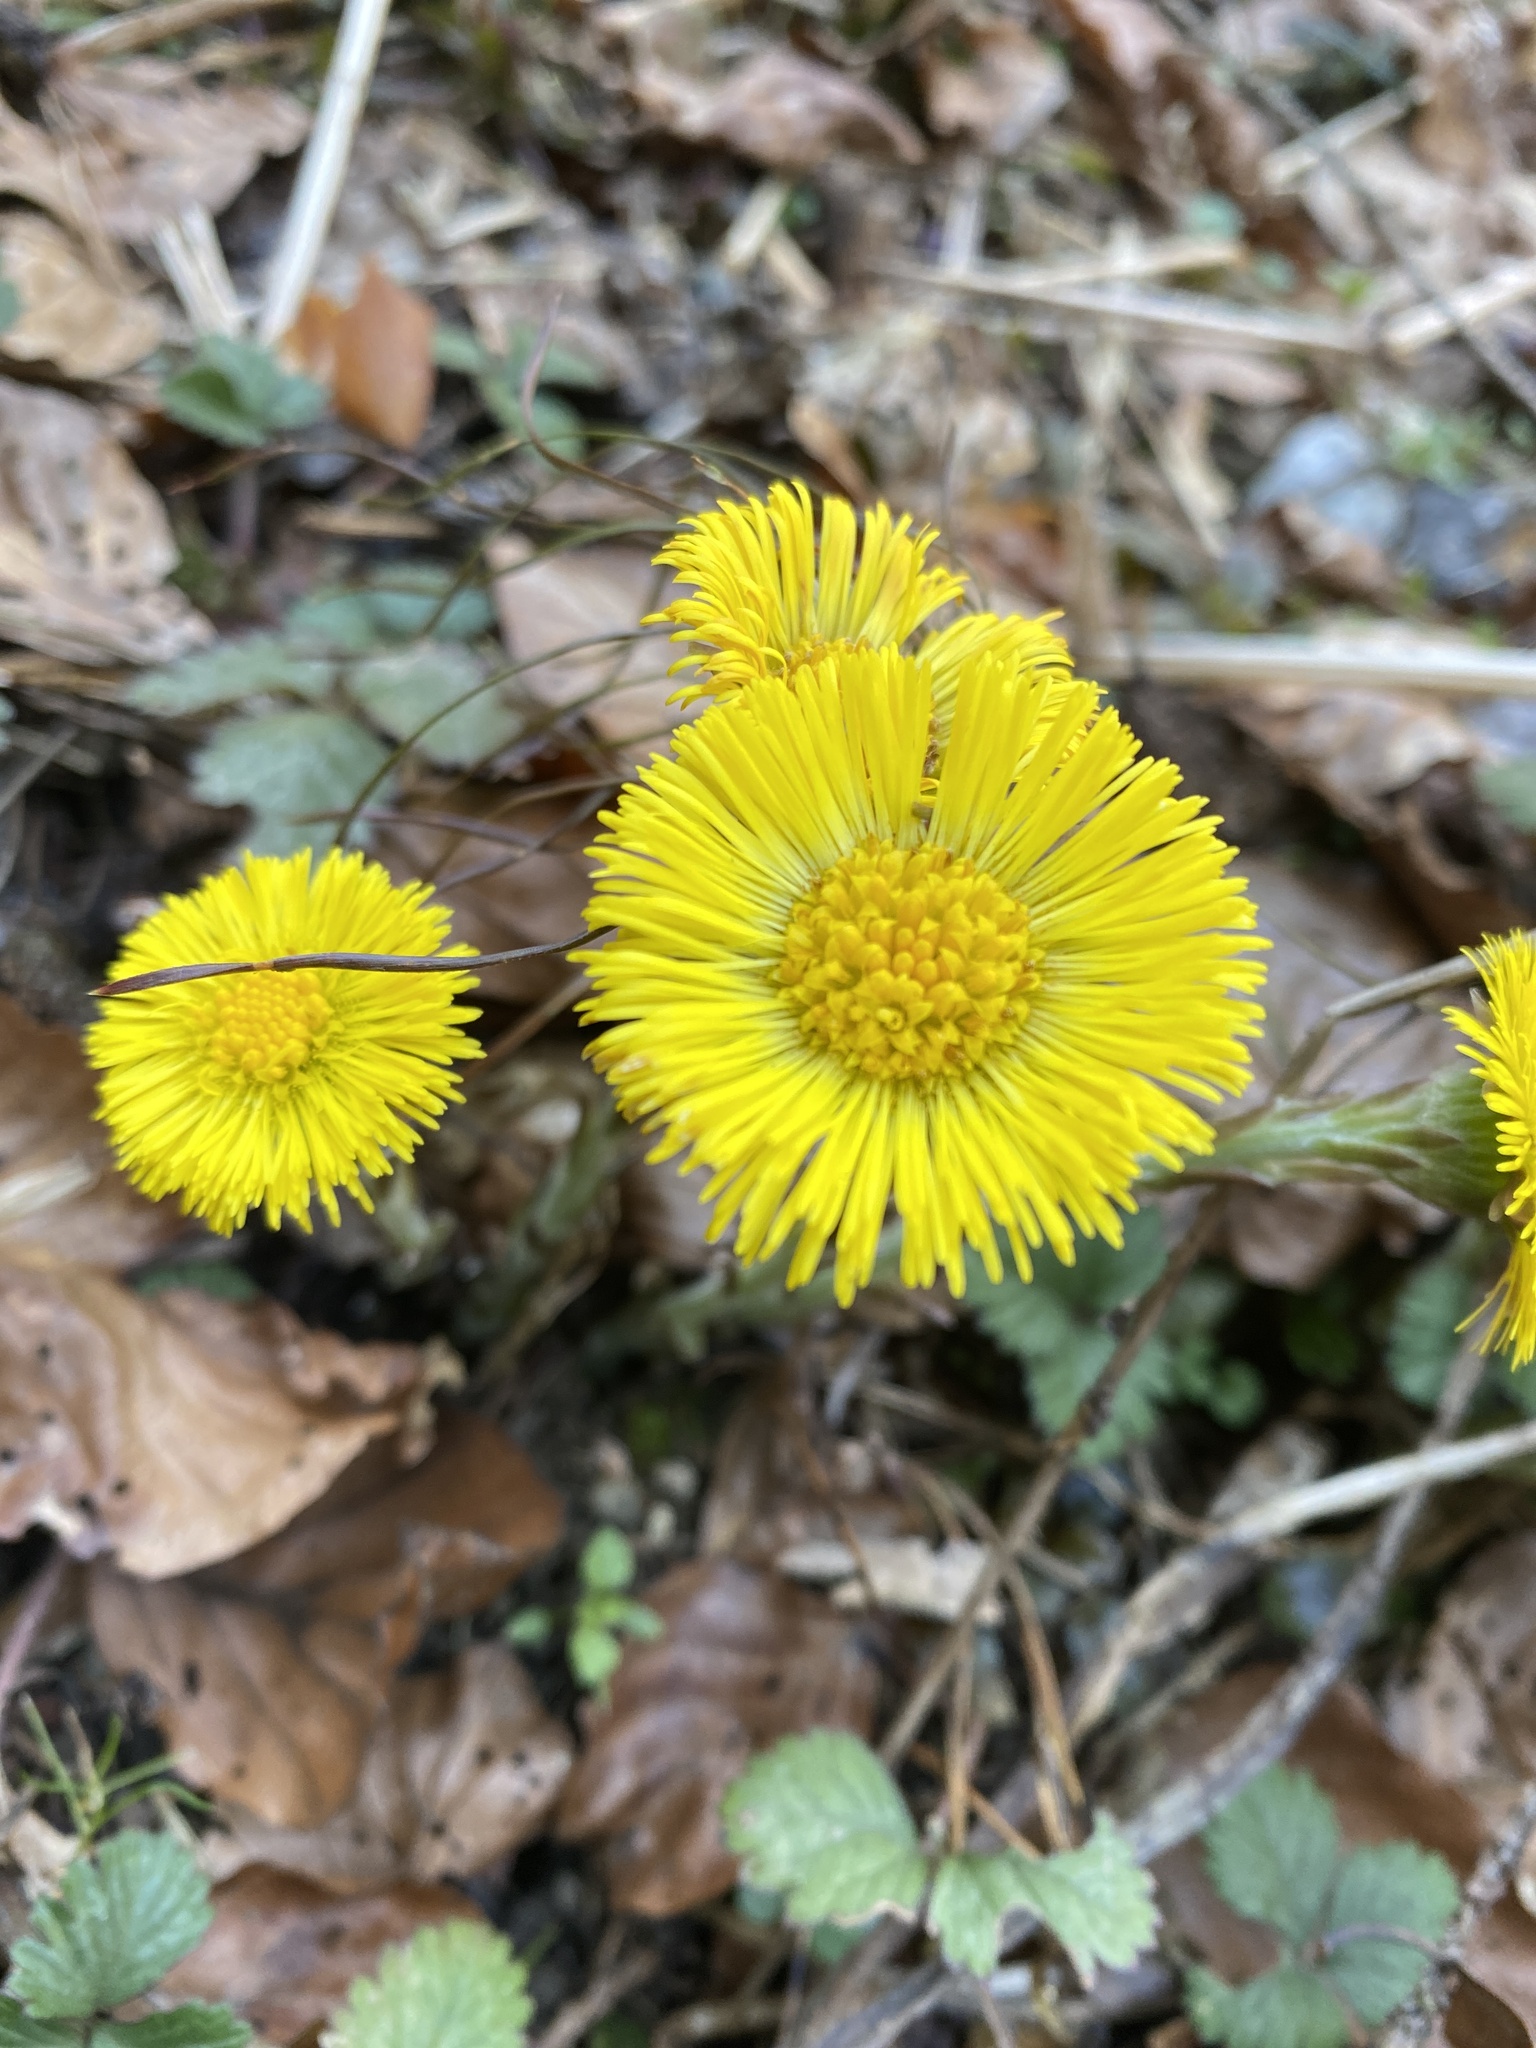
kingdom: Plantae
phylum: Tracheophyta
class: Magnoliopsida
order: Asterales
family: Asteraceae
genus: Tussilago
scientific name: Tussilago farfara
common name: Coltsfoot
